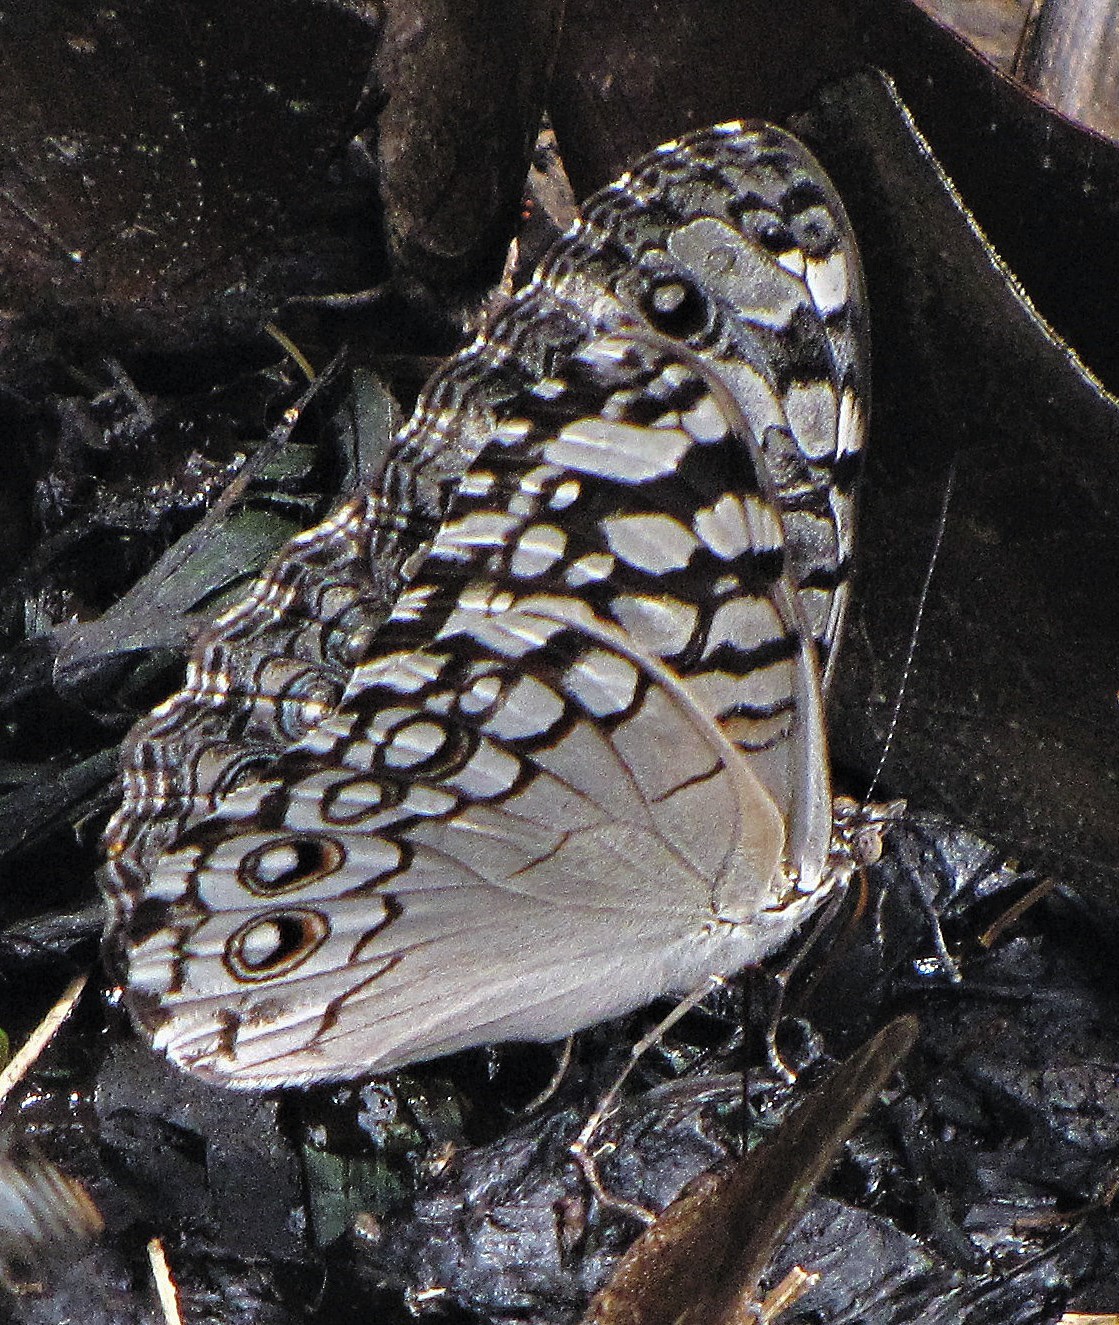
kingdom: Animalia
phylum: Arthropoda
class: Insecta
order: Lepidoptera
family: Nymphalidae
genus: Hamadryas
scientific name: Hamadryas februa
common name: Gray cracker
